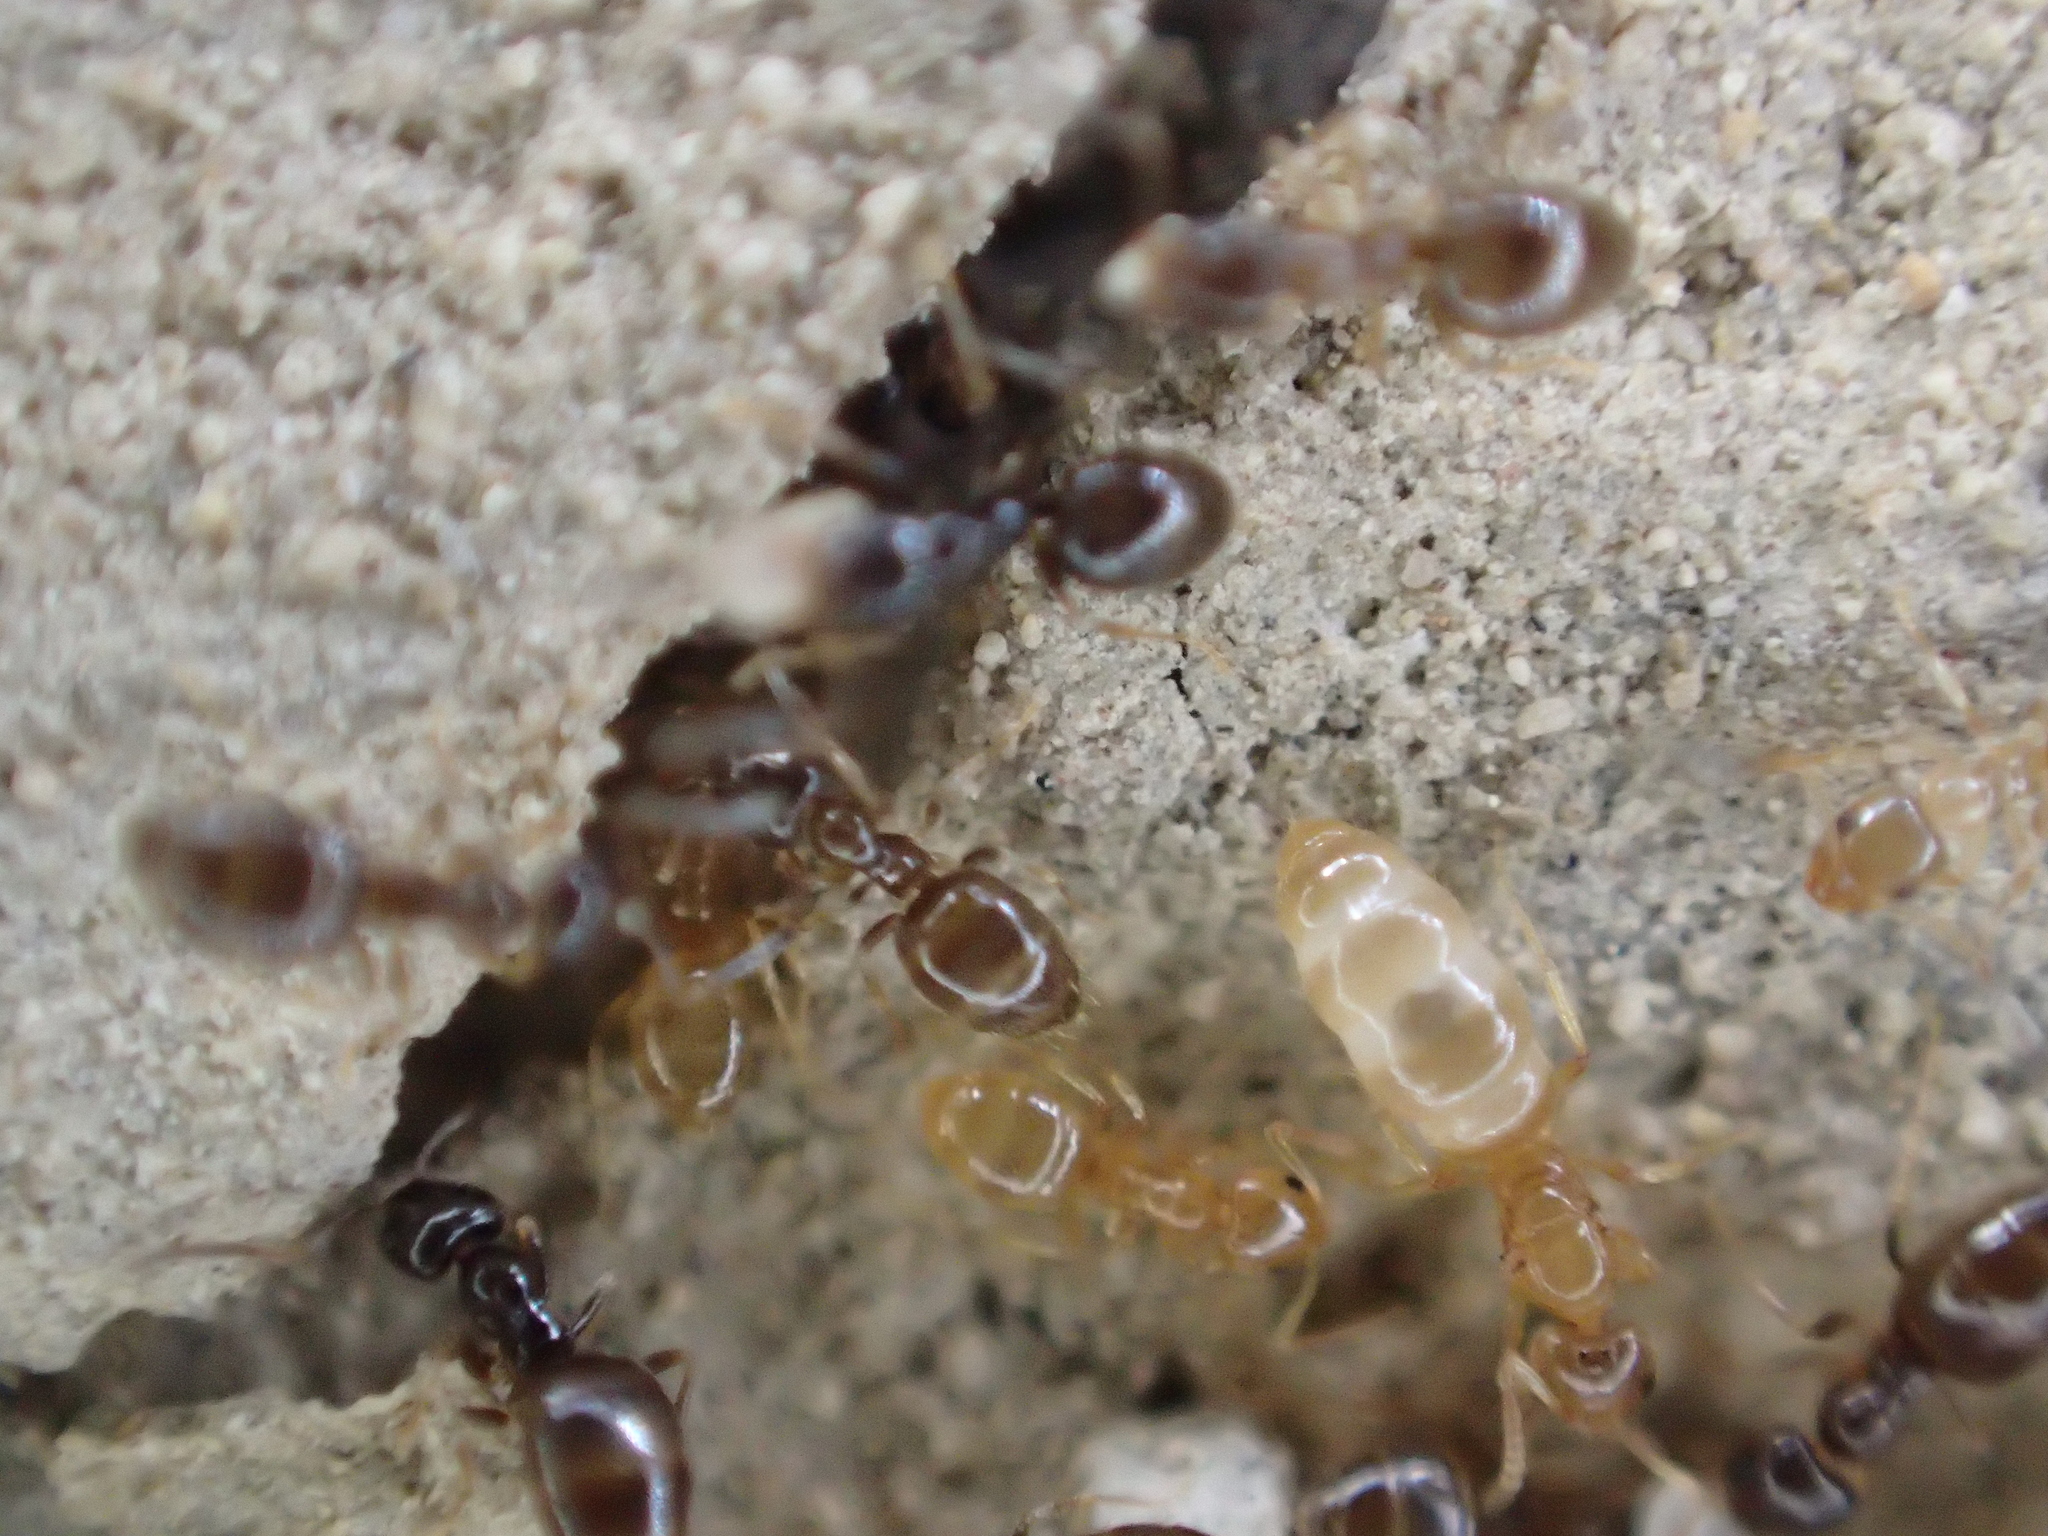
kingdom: Animalia
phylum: Arthropoda
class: Insecta
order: Hymenoptera
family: Formicidae
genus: Plagiolepis
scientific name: Plagiolepis grassei
